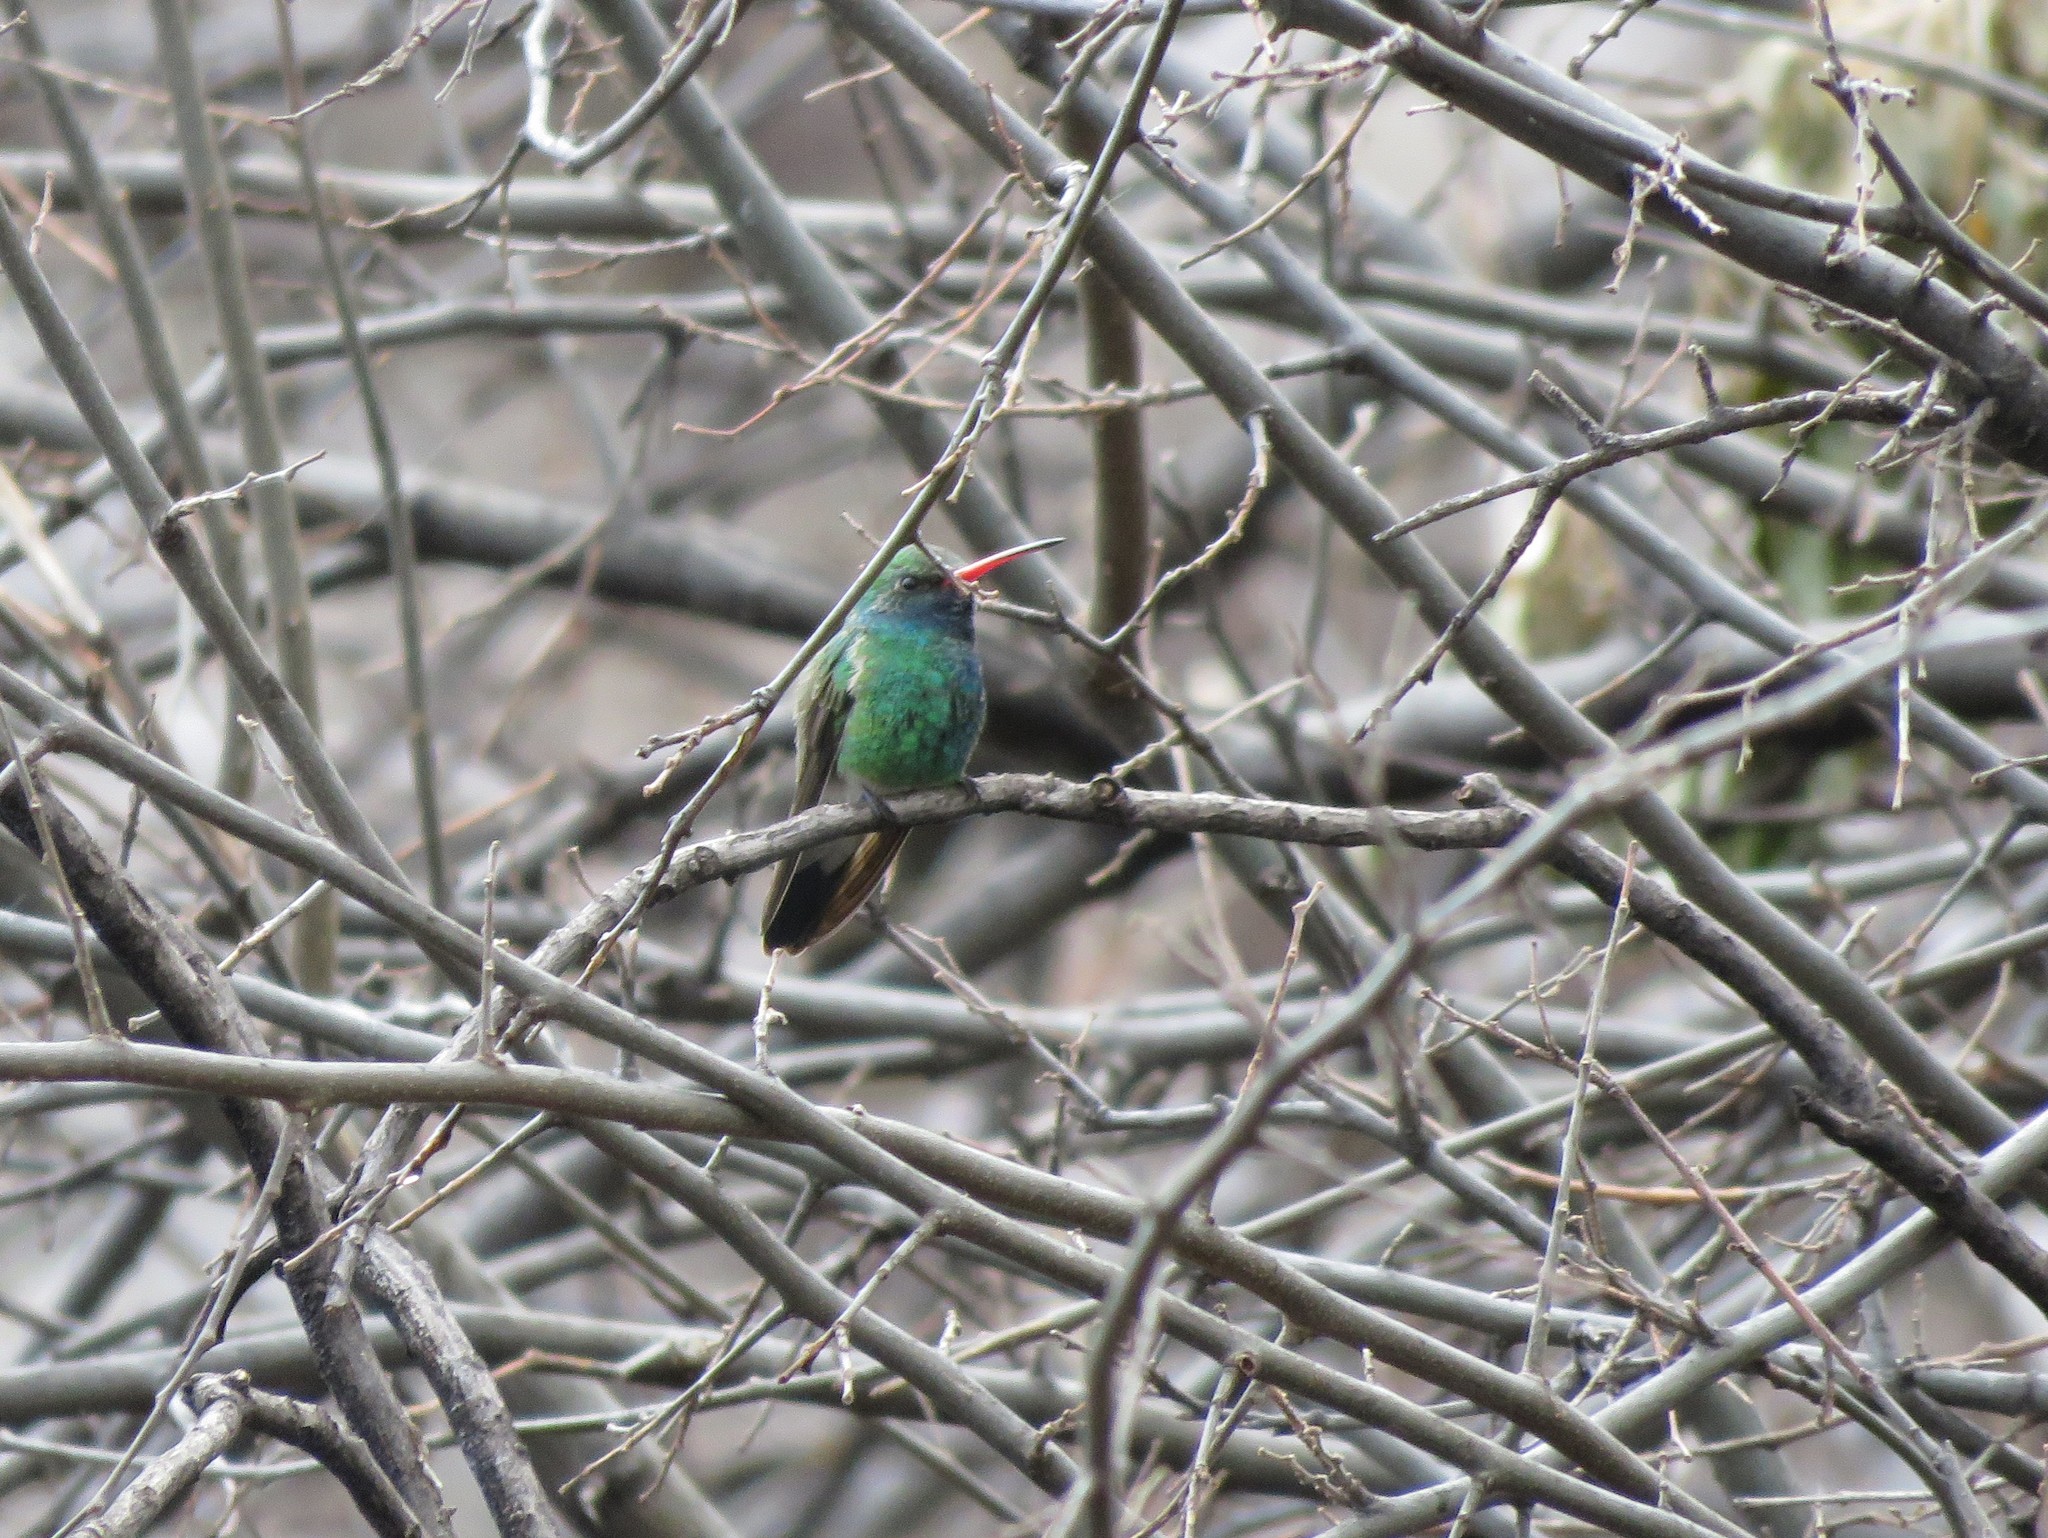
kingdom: Animalia
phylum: Chordata
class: Aves
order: Apodiformes
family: Trochilidae
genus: Cynanthus
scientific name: Cynanthus latirostris
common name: Broad-billed hummingbird
